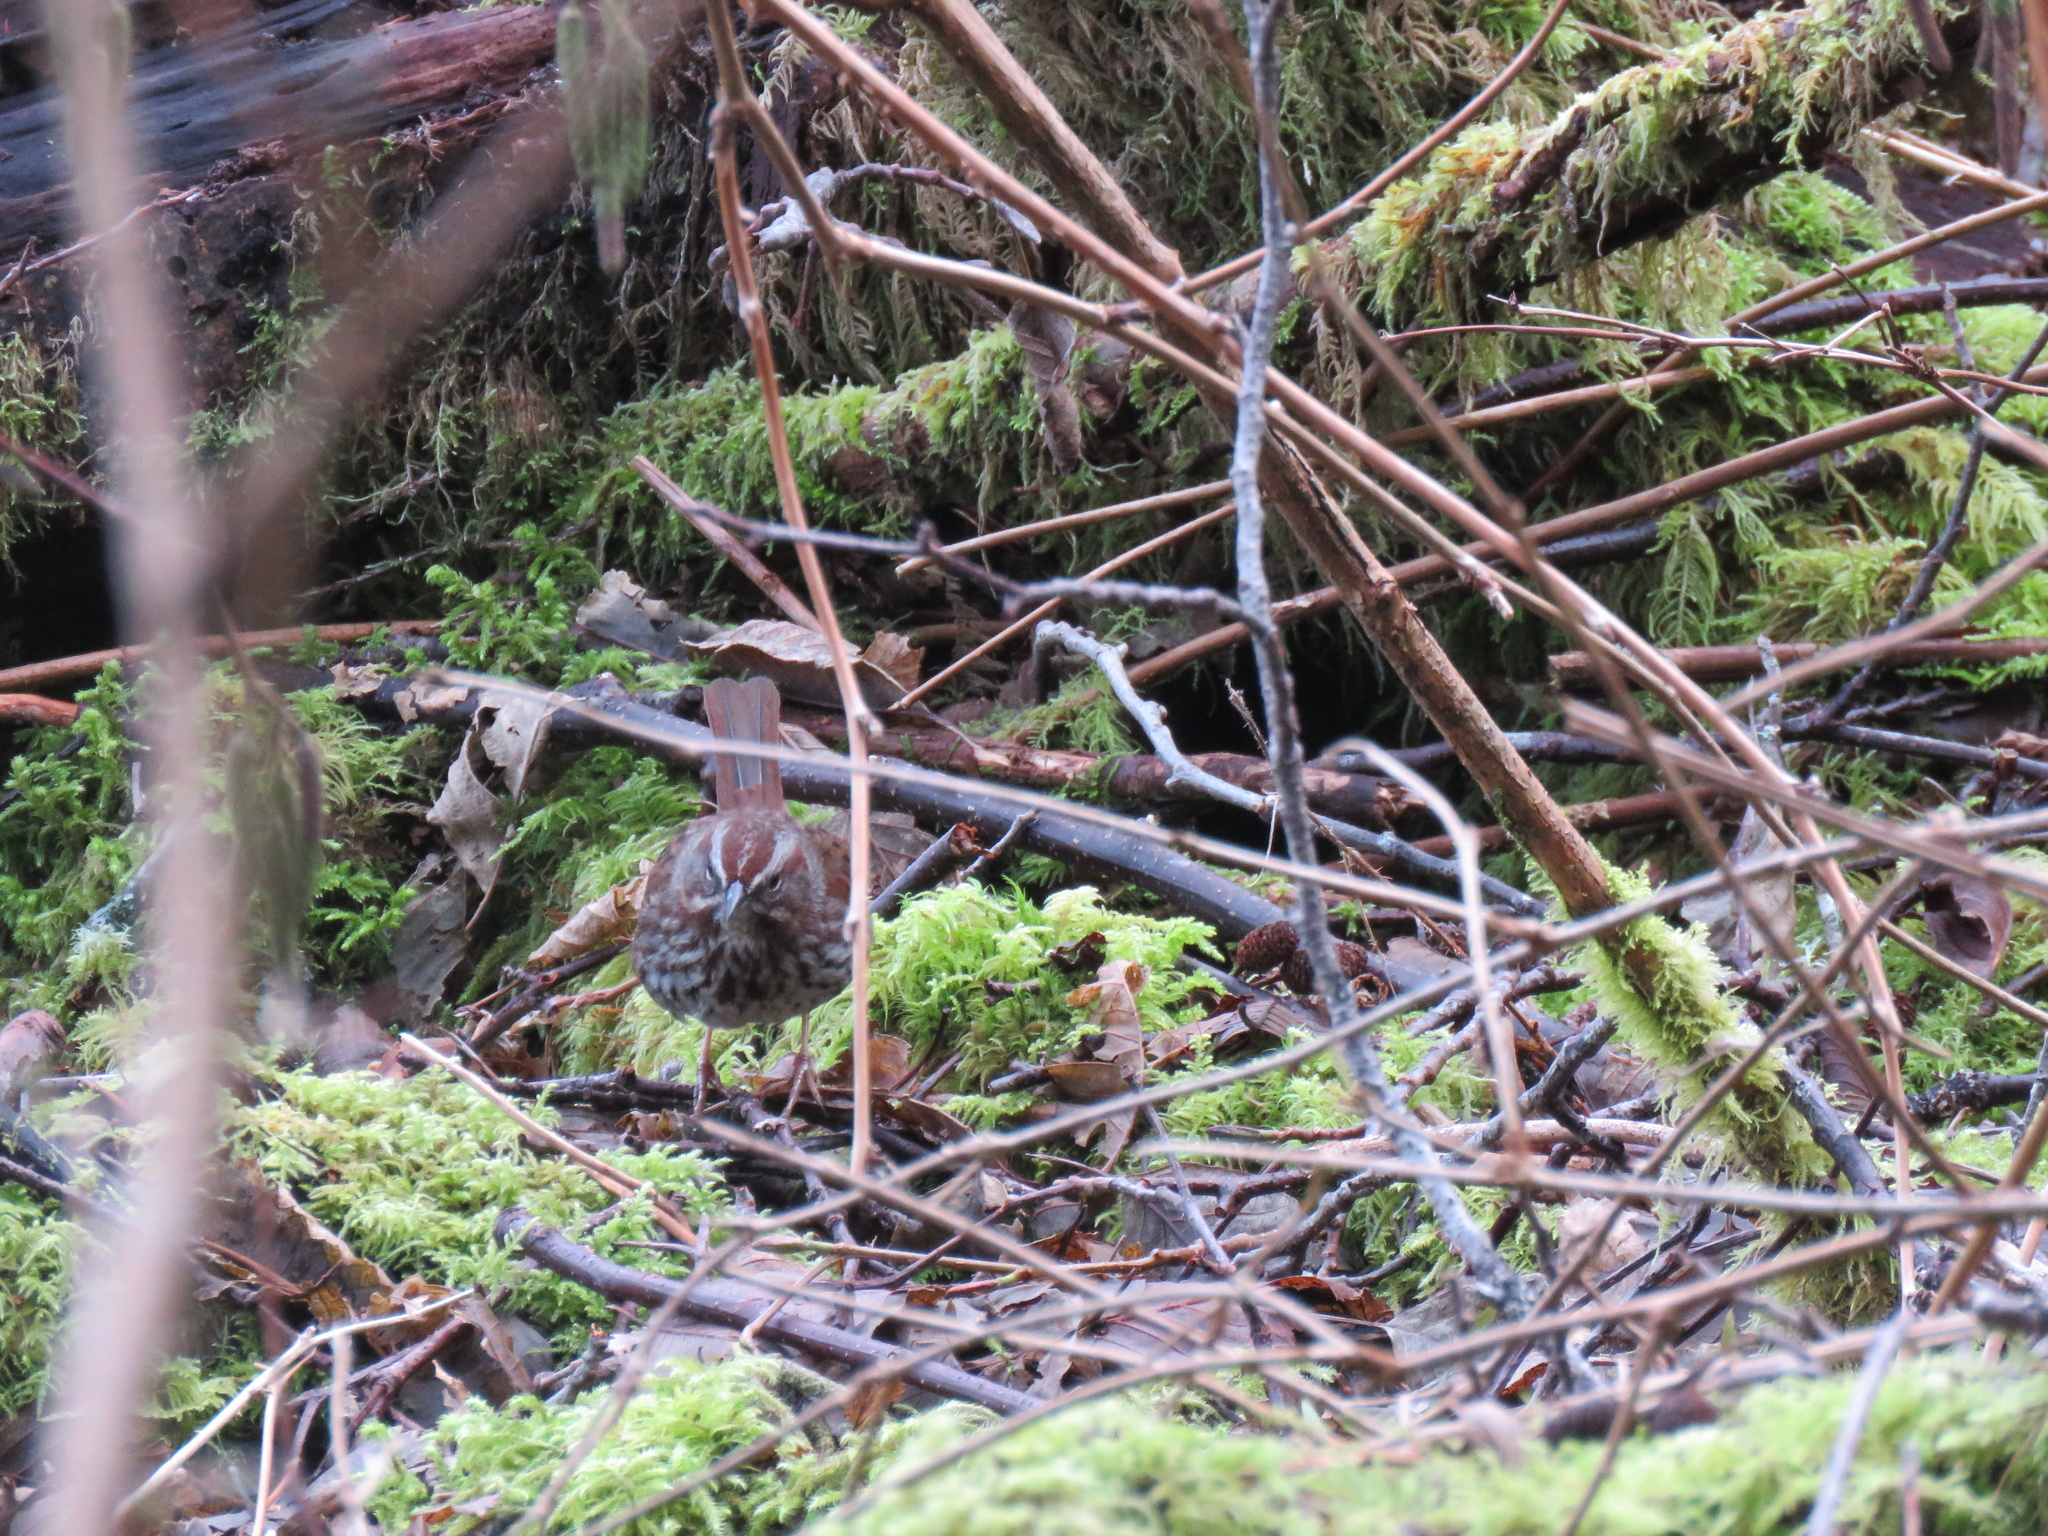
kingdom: Animalia
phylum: Chordata
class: Aves
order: Passeriformes
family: Passerellidae
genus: Melospiza
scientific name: Melospiza melodia
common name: Song sparrow
